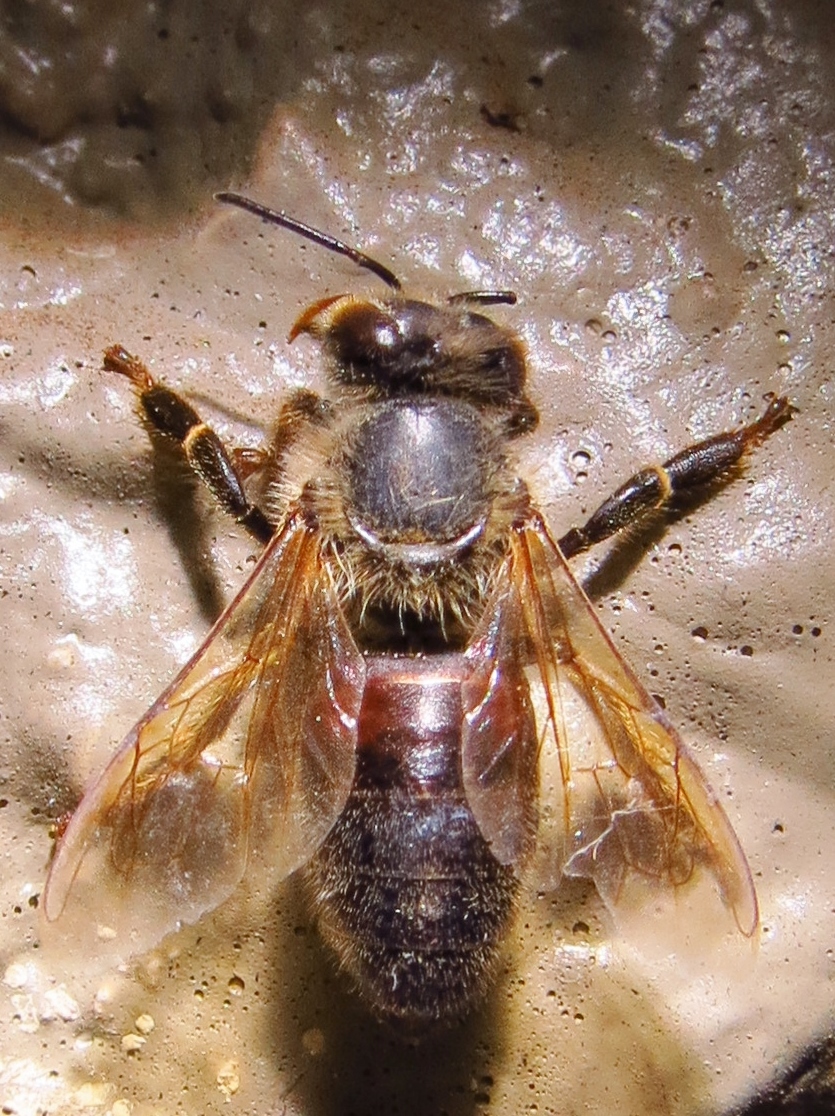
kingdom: Animalia
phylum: Arthropoda
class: Insecta
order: Hymenoptera
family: Apidae
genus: Apis
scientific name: Apis mellifera
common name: Honey bee
